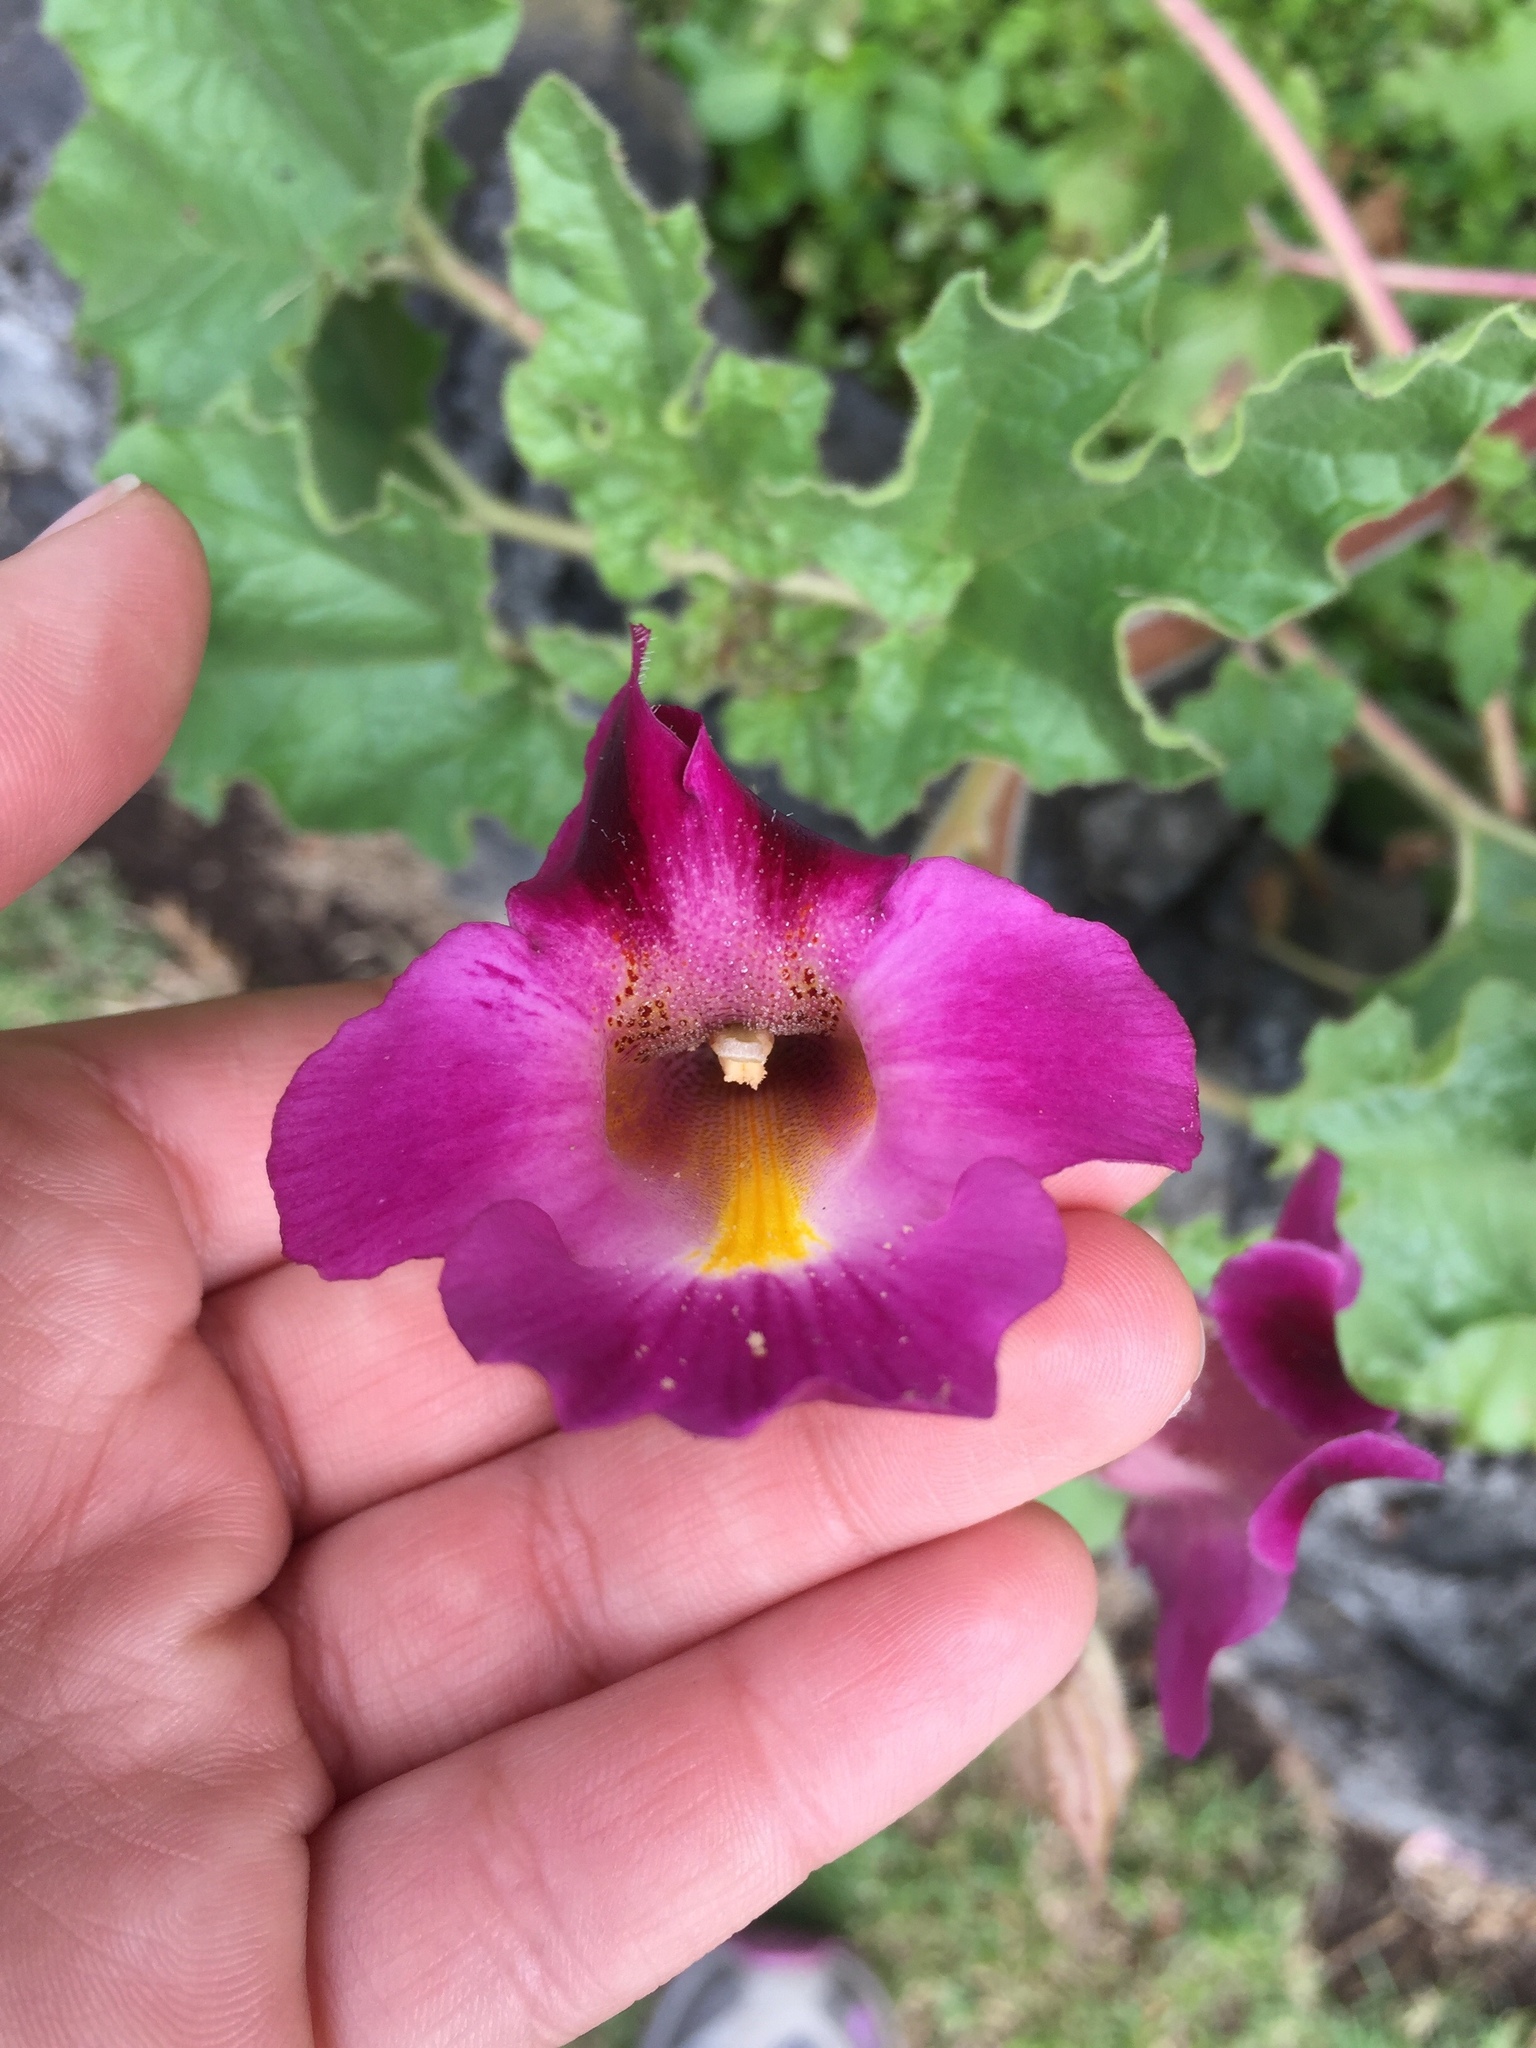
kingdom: Plantae
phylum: Tracheophyta
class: Magnoliopsida
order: Lamiales
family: Martyniaceae
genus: Proboscidea
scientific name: Proboscidea louisianica
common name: Elephant tusks
